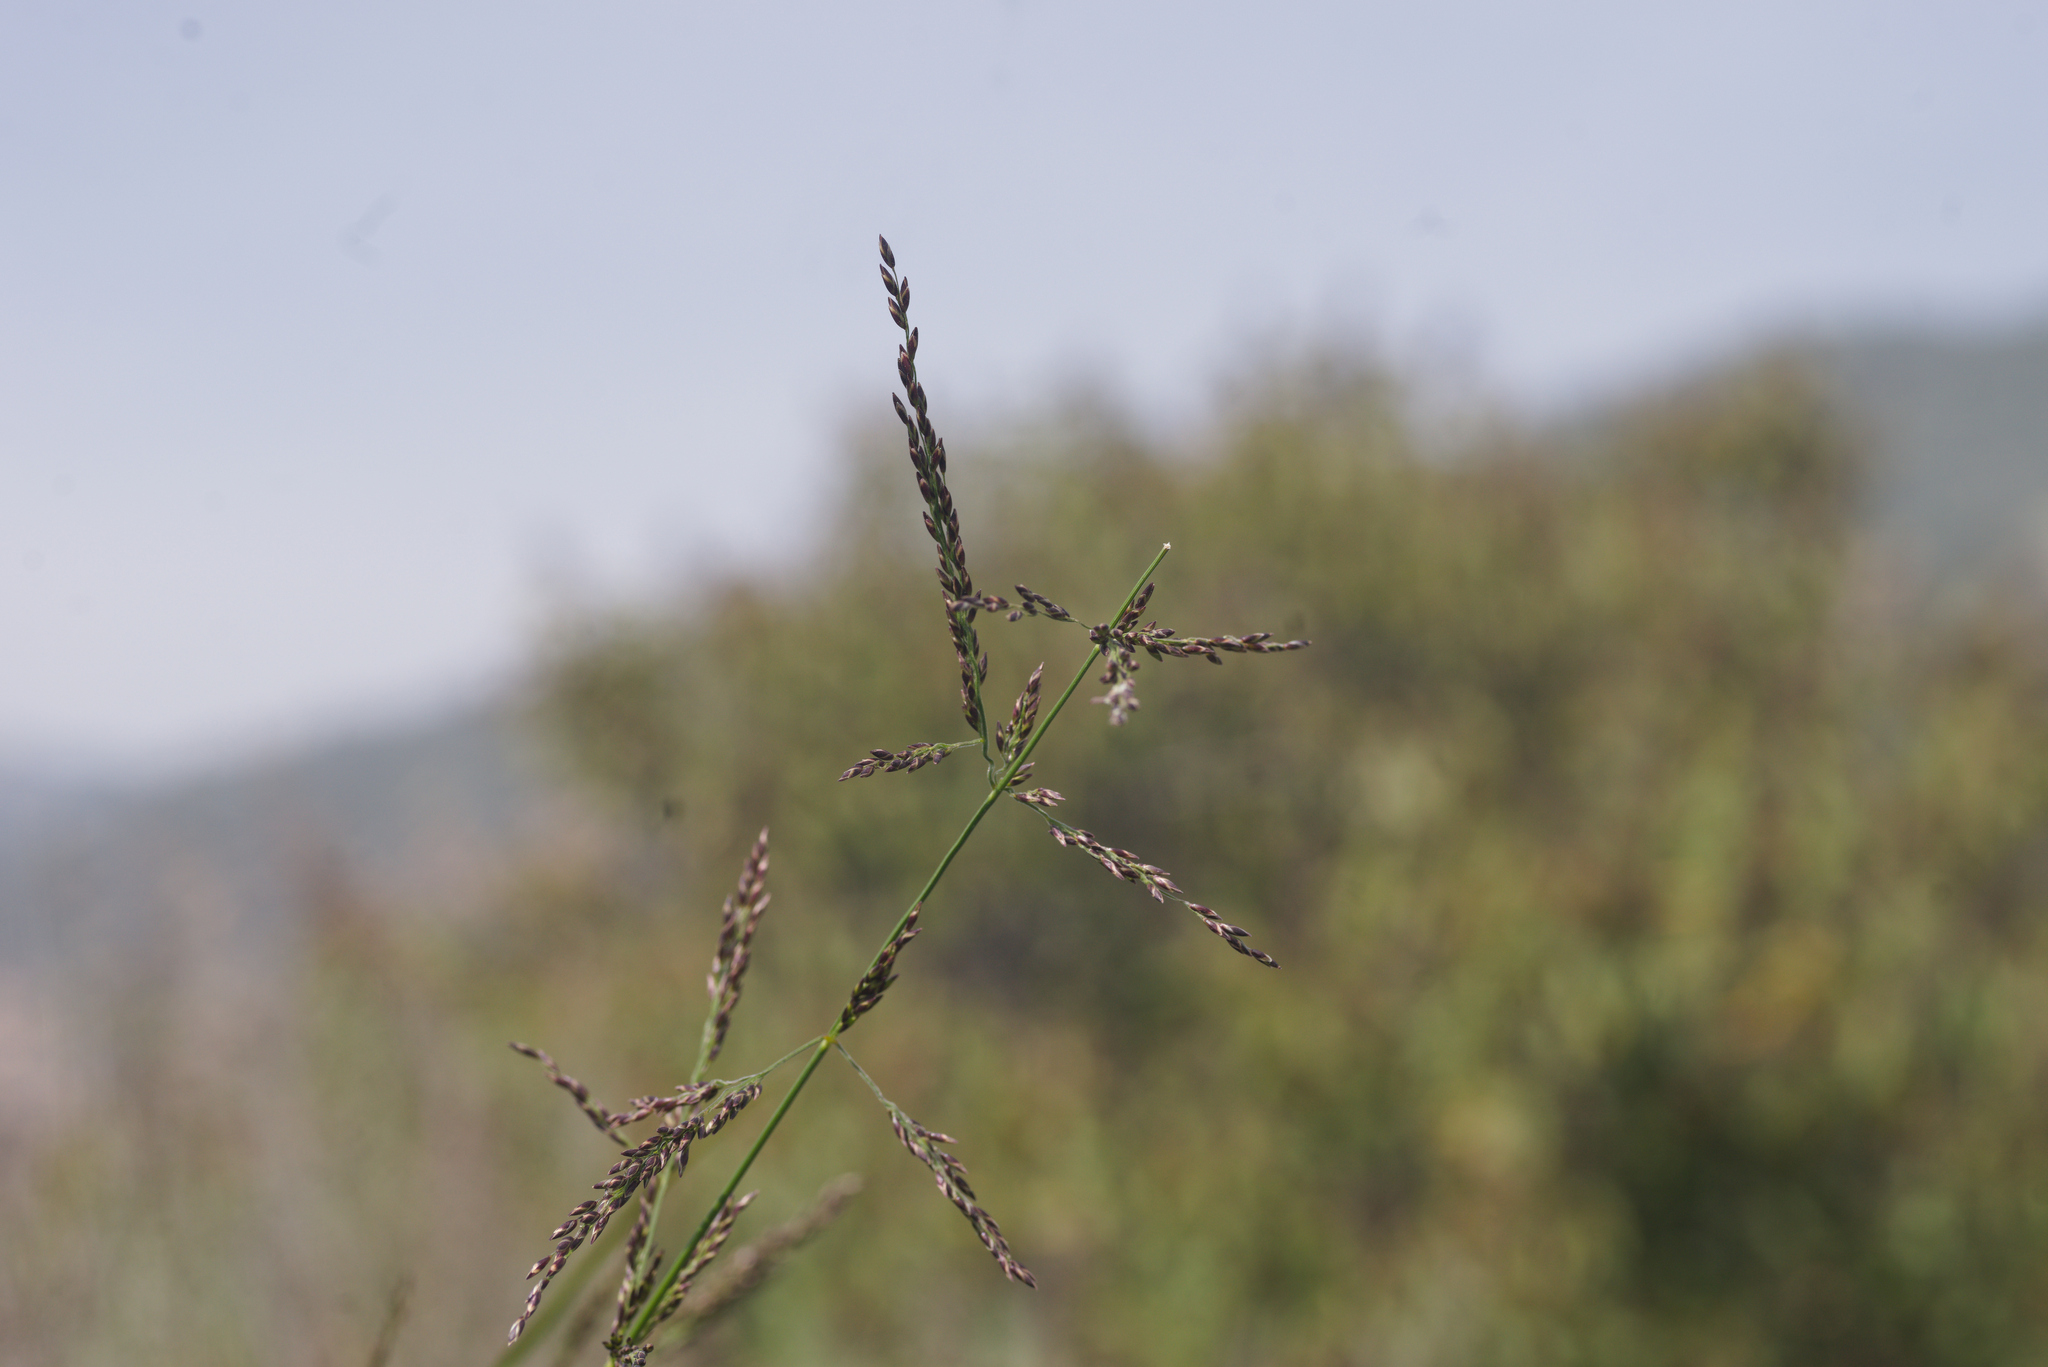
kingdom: Plantae
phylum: Tracheophyta
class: Liliopsida
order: Poales
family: Poaceae
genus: Melica
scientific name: Melica imperfecta
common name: California melic
